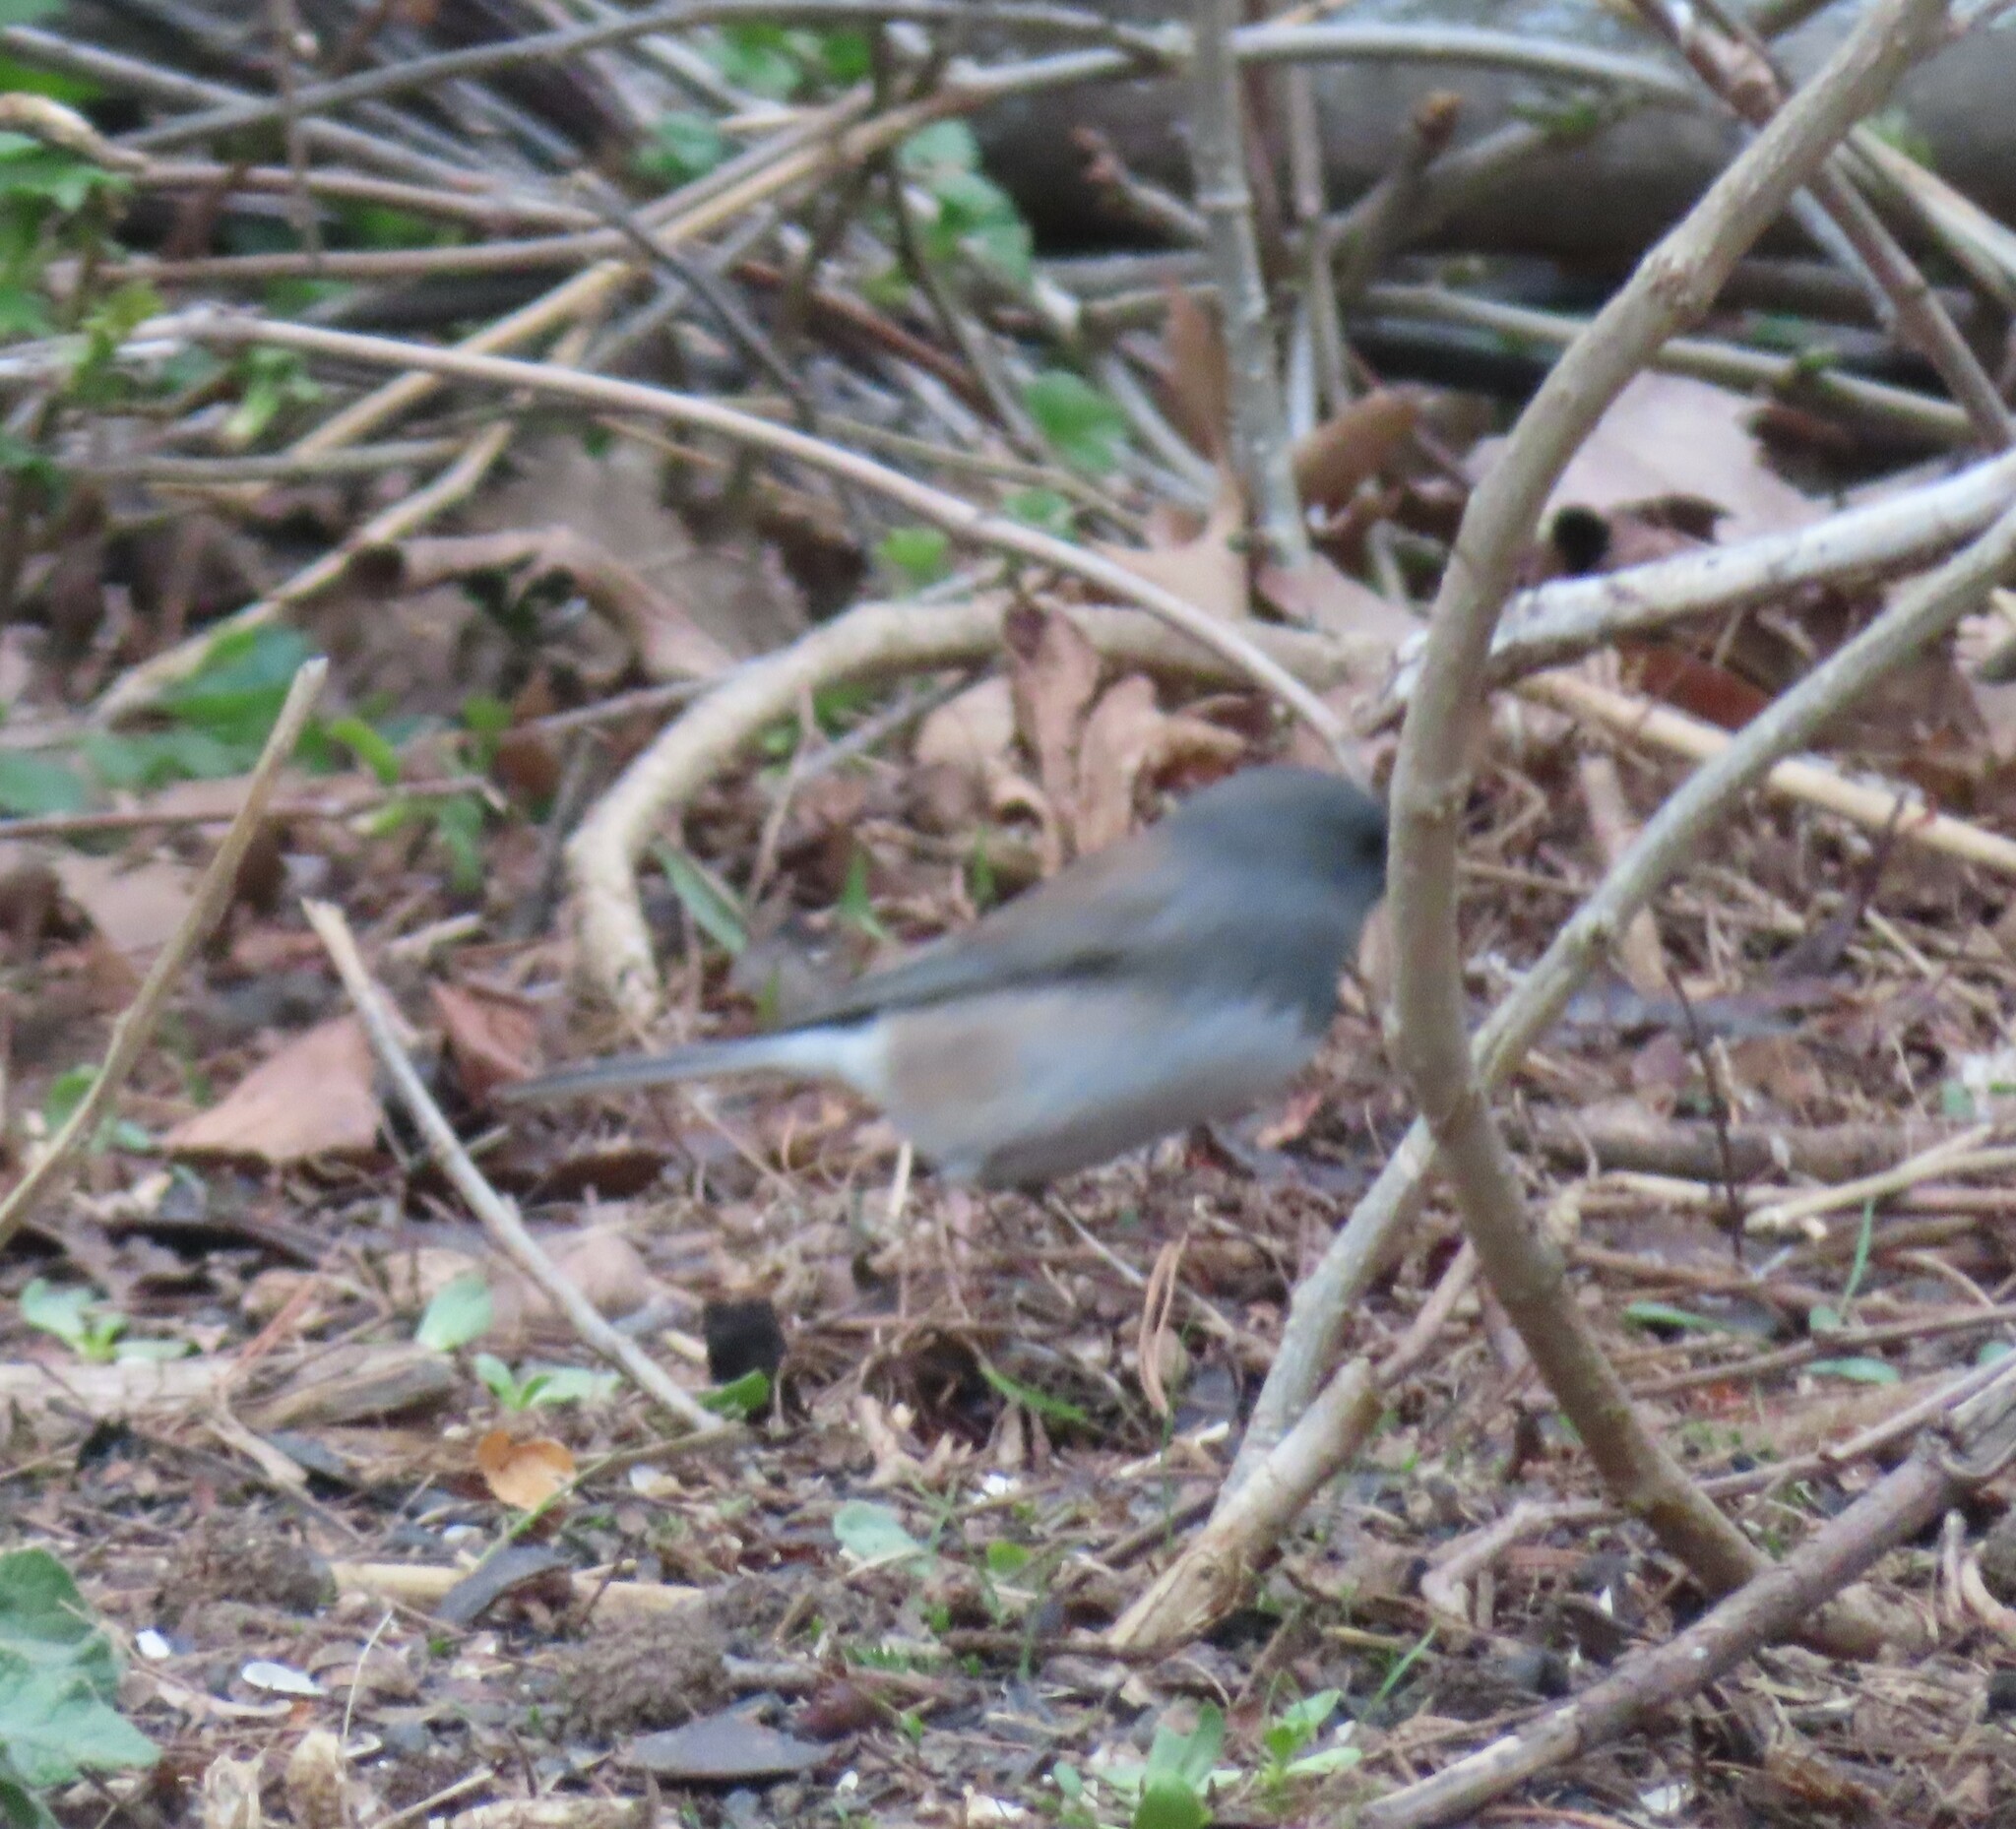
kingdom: Animalia
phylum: Chordata
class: Aves
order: Passeriformes
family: Passerellidae
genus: Junco
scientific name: Junco hyemalis
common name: Dark-eyed junco
